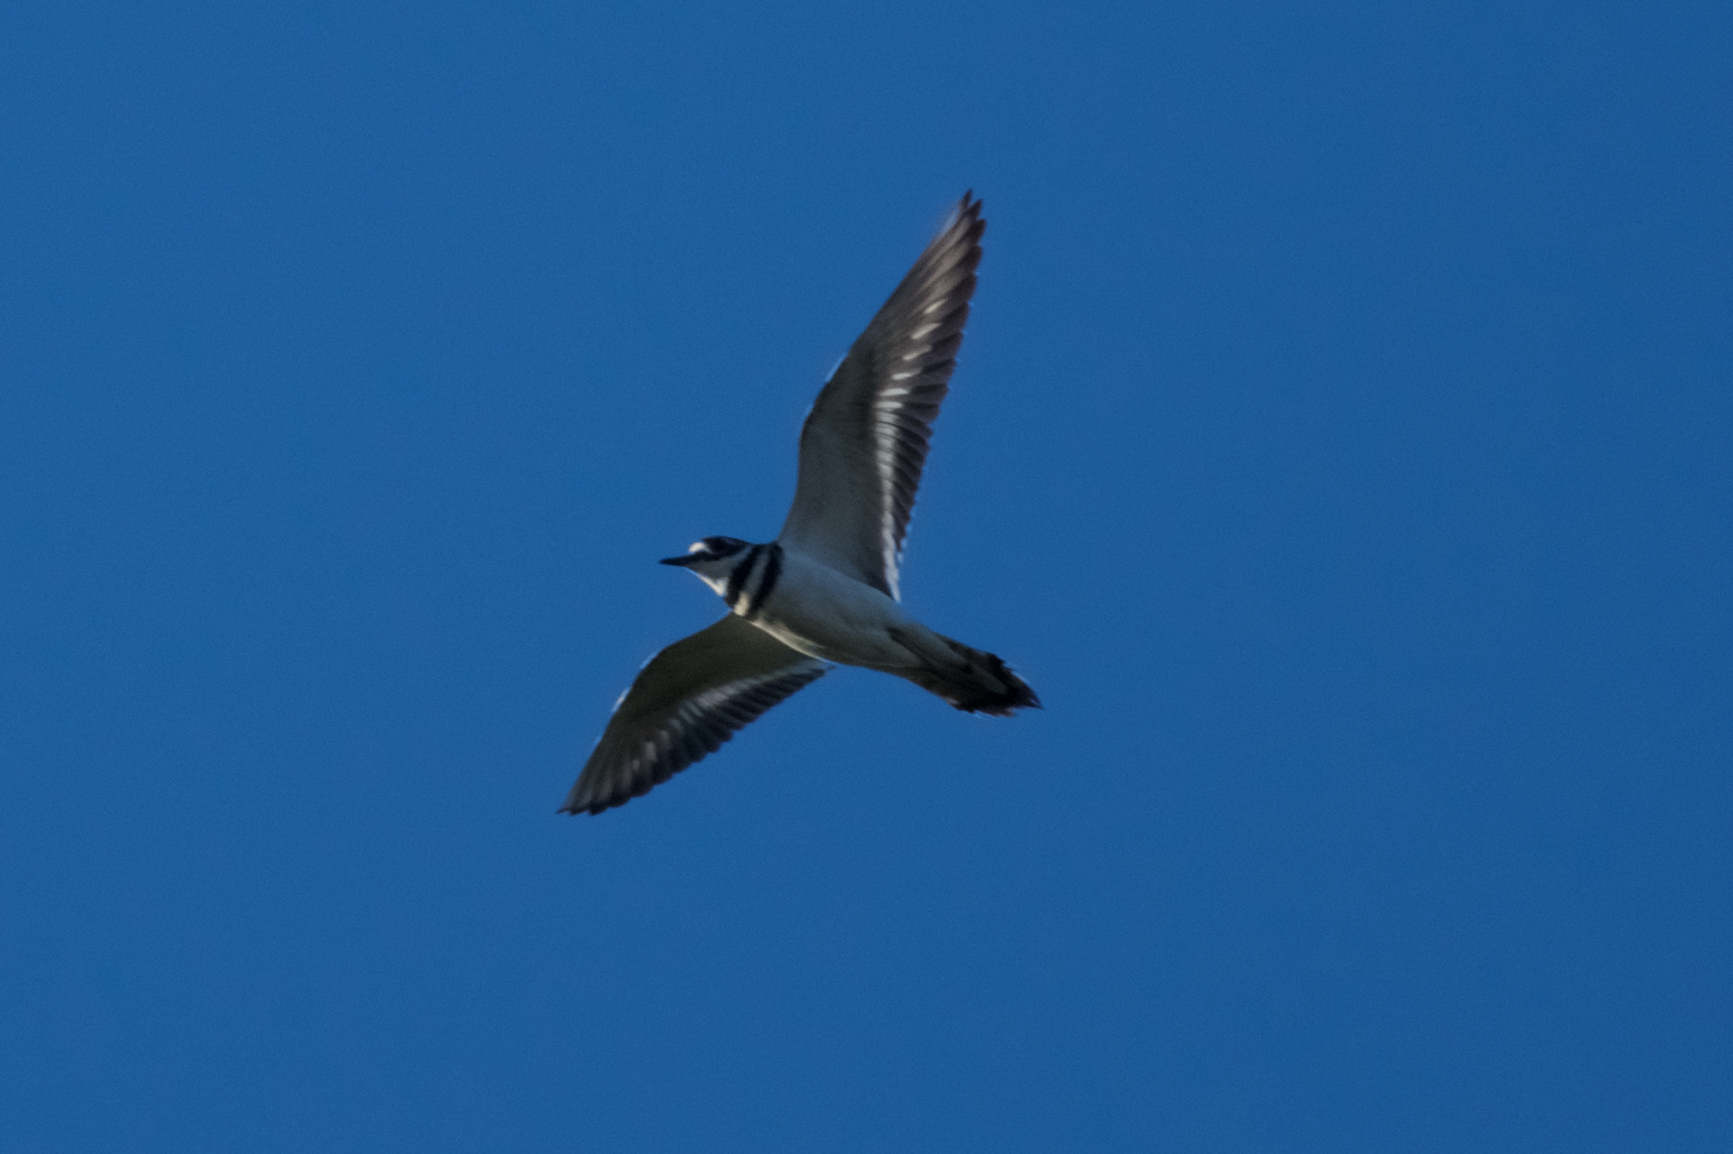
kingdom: Animalia
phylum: Chordata
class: Aves
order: Charadriiformes
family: Charadriidae
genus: Charadrius
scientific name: Charadrius vociferus
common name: Killdeer
